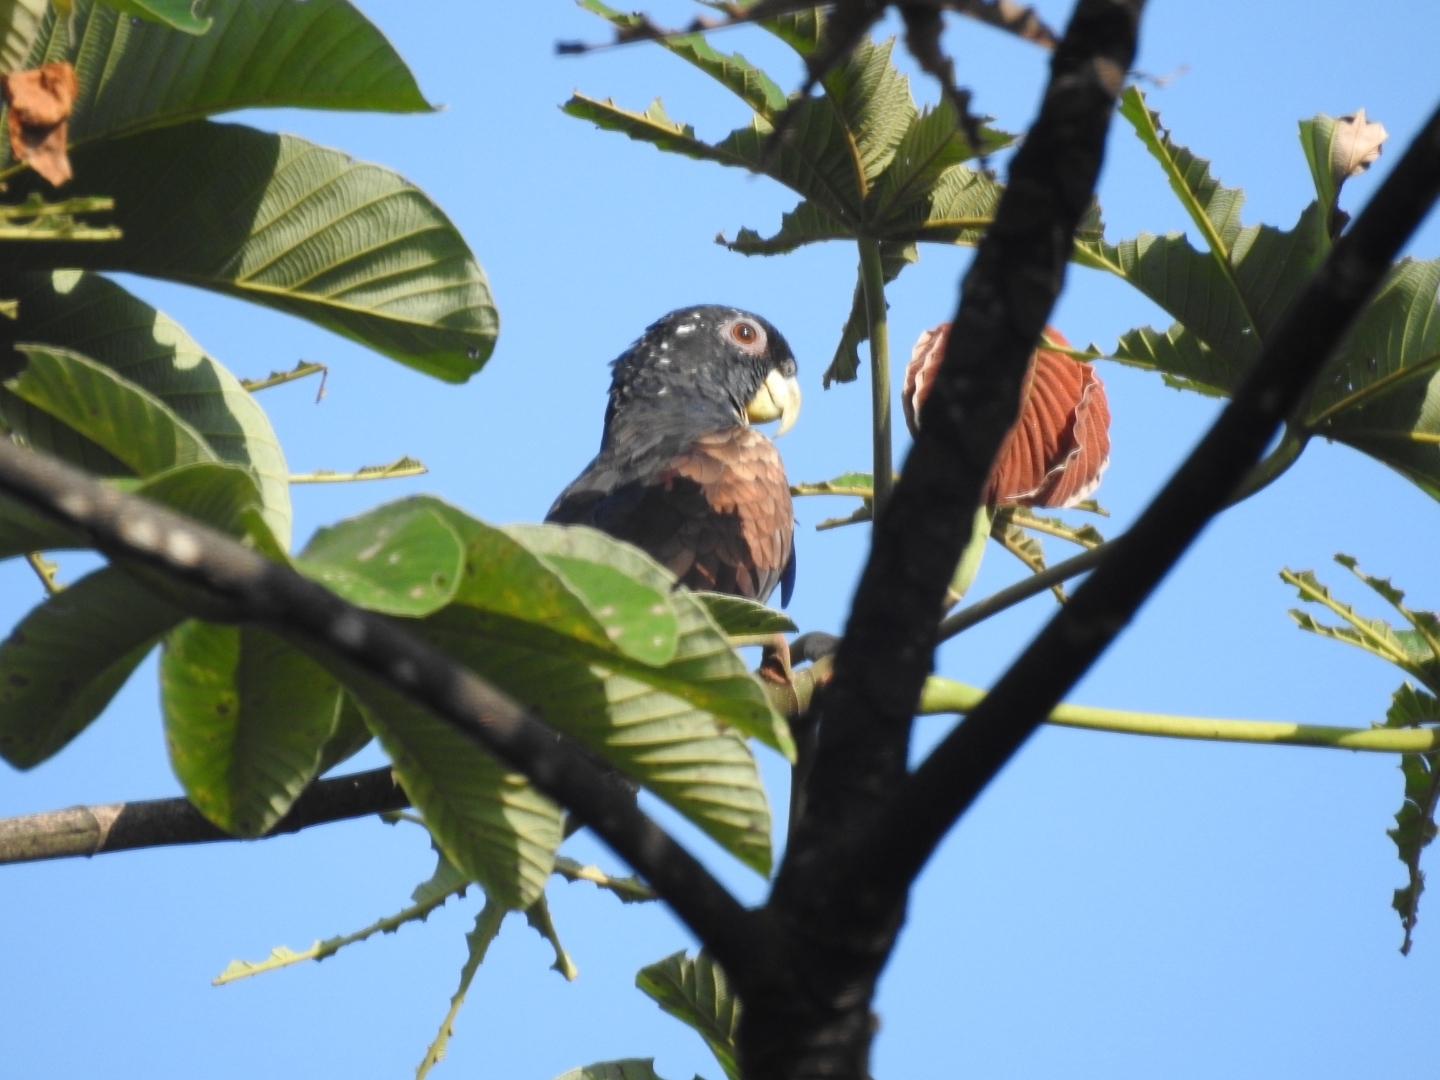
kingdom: Animalia
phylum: Chordata
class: Aves
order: Psittaciformes
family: Psittacidae
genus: Pionus
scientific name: Pionus chalcopterus
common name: Bronze-winged parrot
